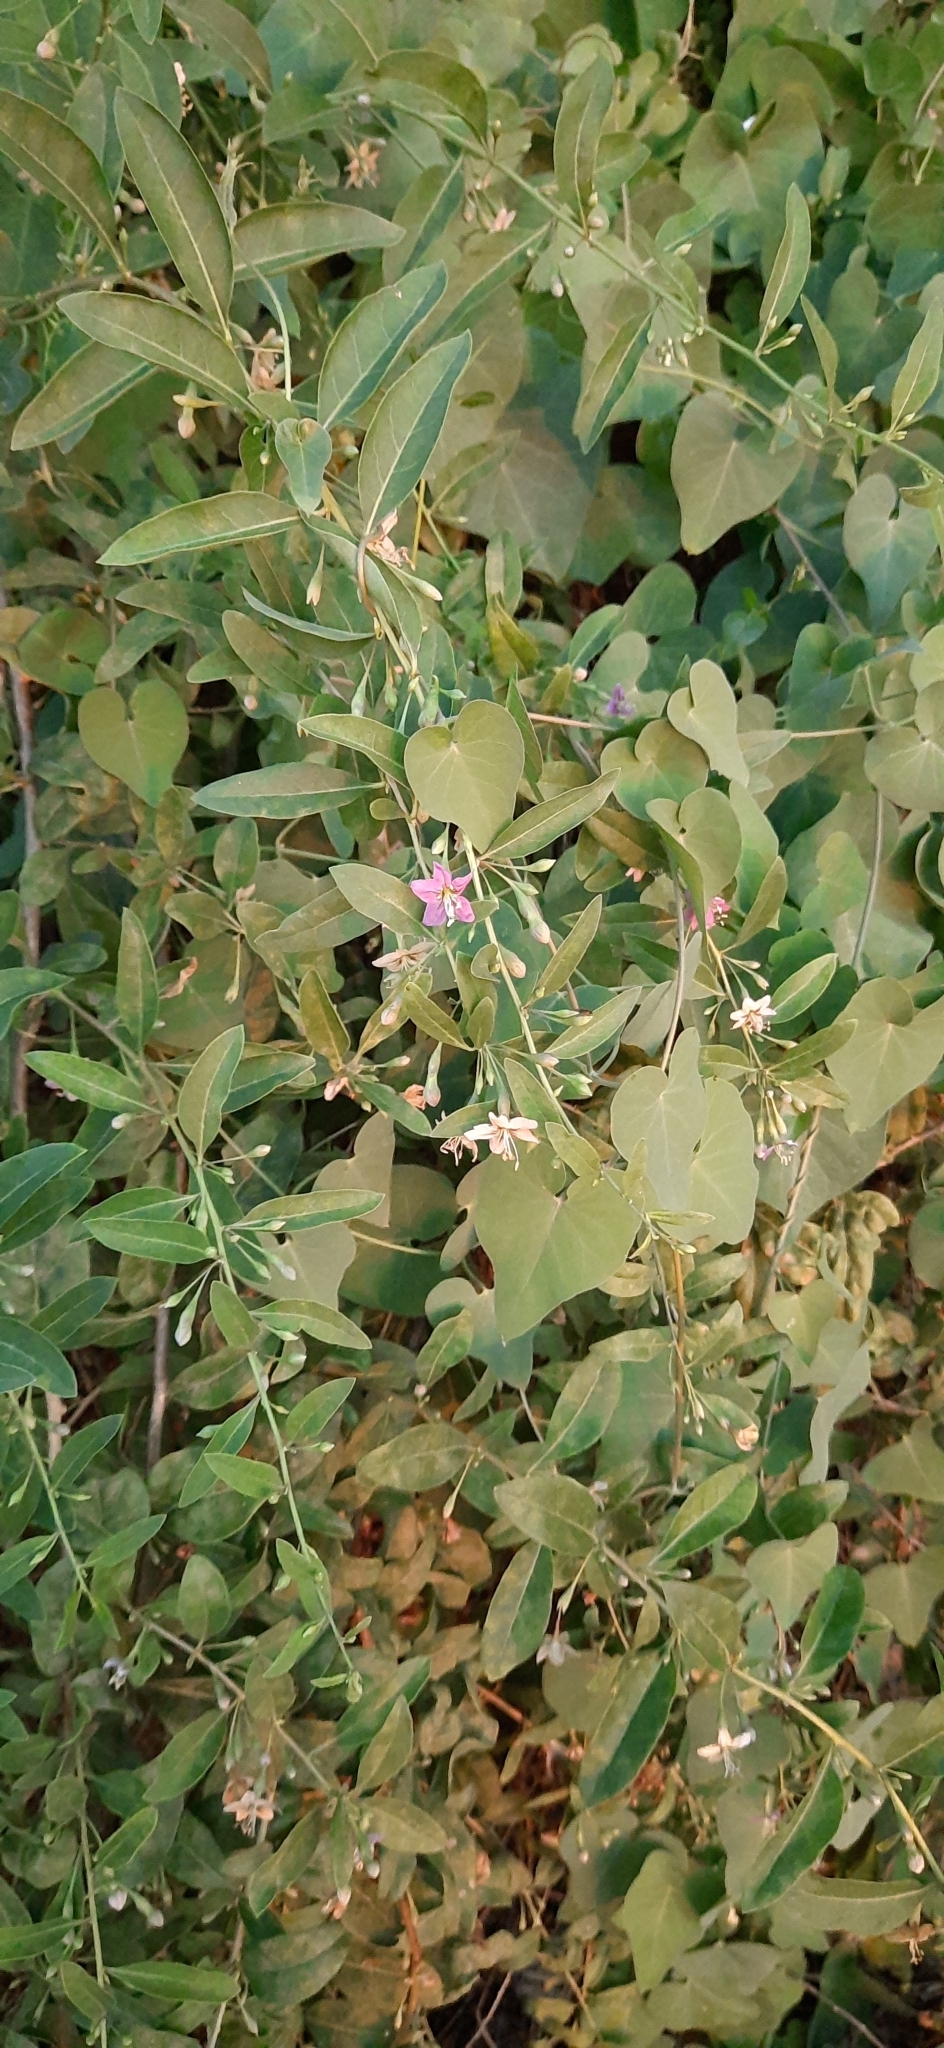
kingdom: Plantae
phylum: Tracheophyta
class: Magnoliopsida
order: Solanales
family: Solanaceae
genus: Lycium
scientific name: Lycium barbarum
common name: Duke of argyll's teaplant
